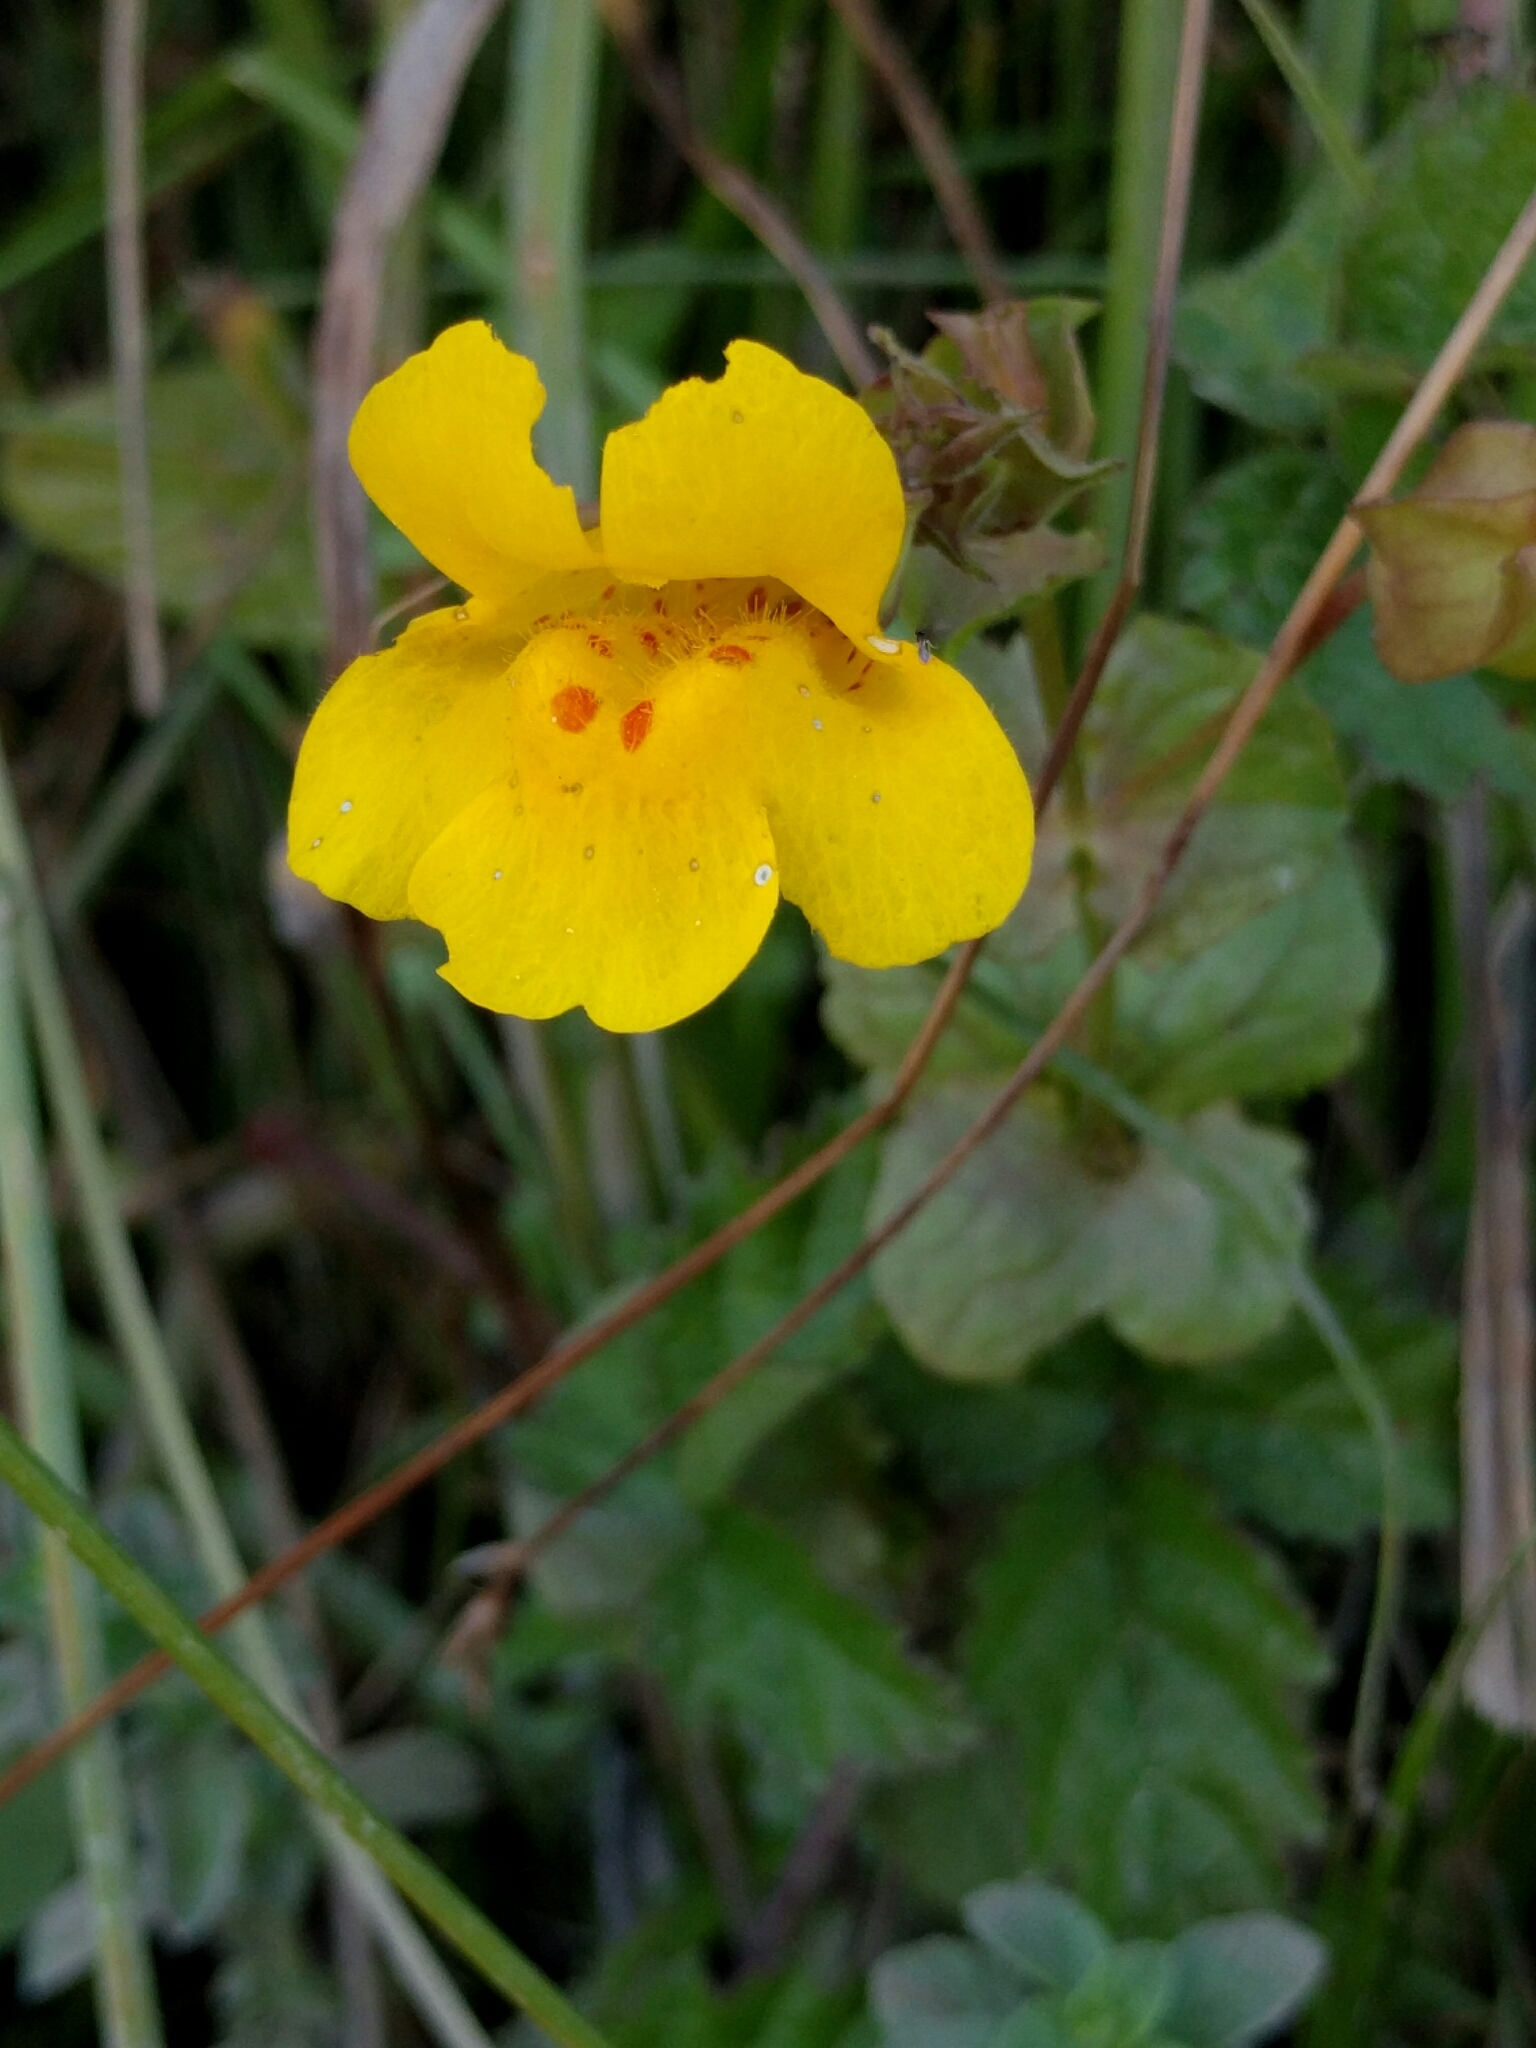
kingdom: Plantae
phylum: Tracheophyta
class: Magnoliopsida
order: Lamiales
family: Phrymaceae
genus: Erythranthe
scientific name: Erythranthe guttata
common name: Monkeyflower
